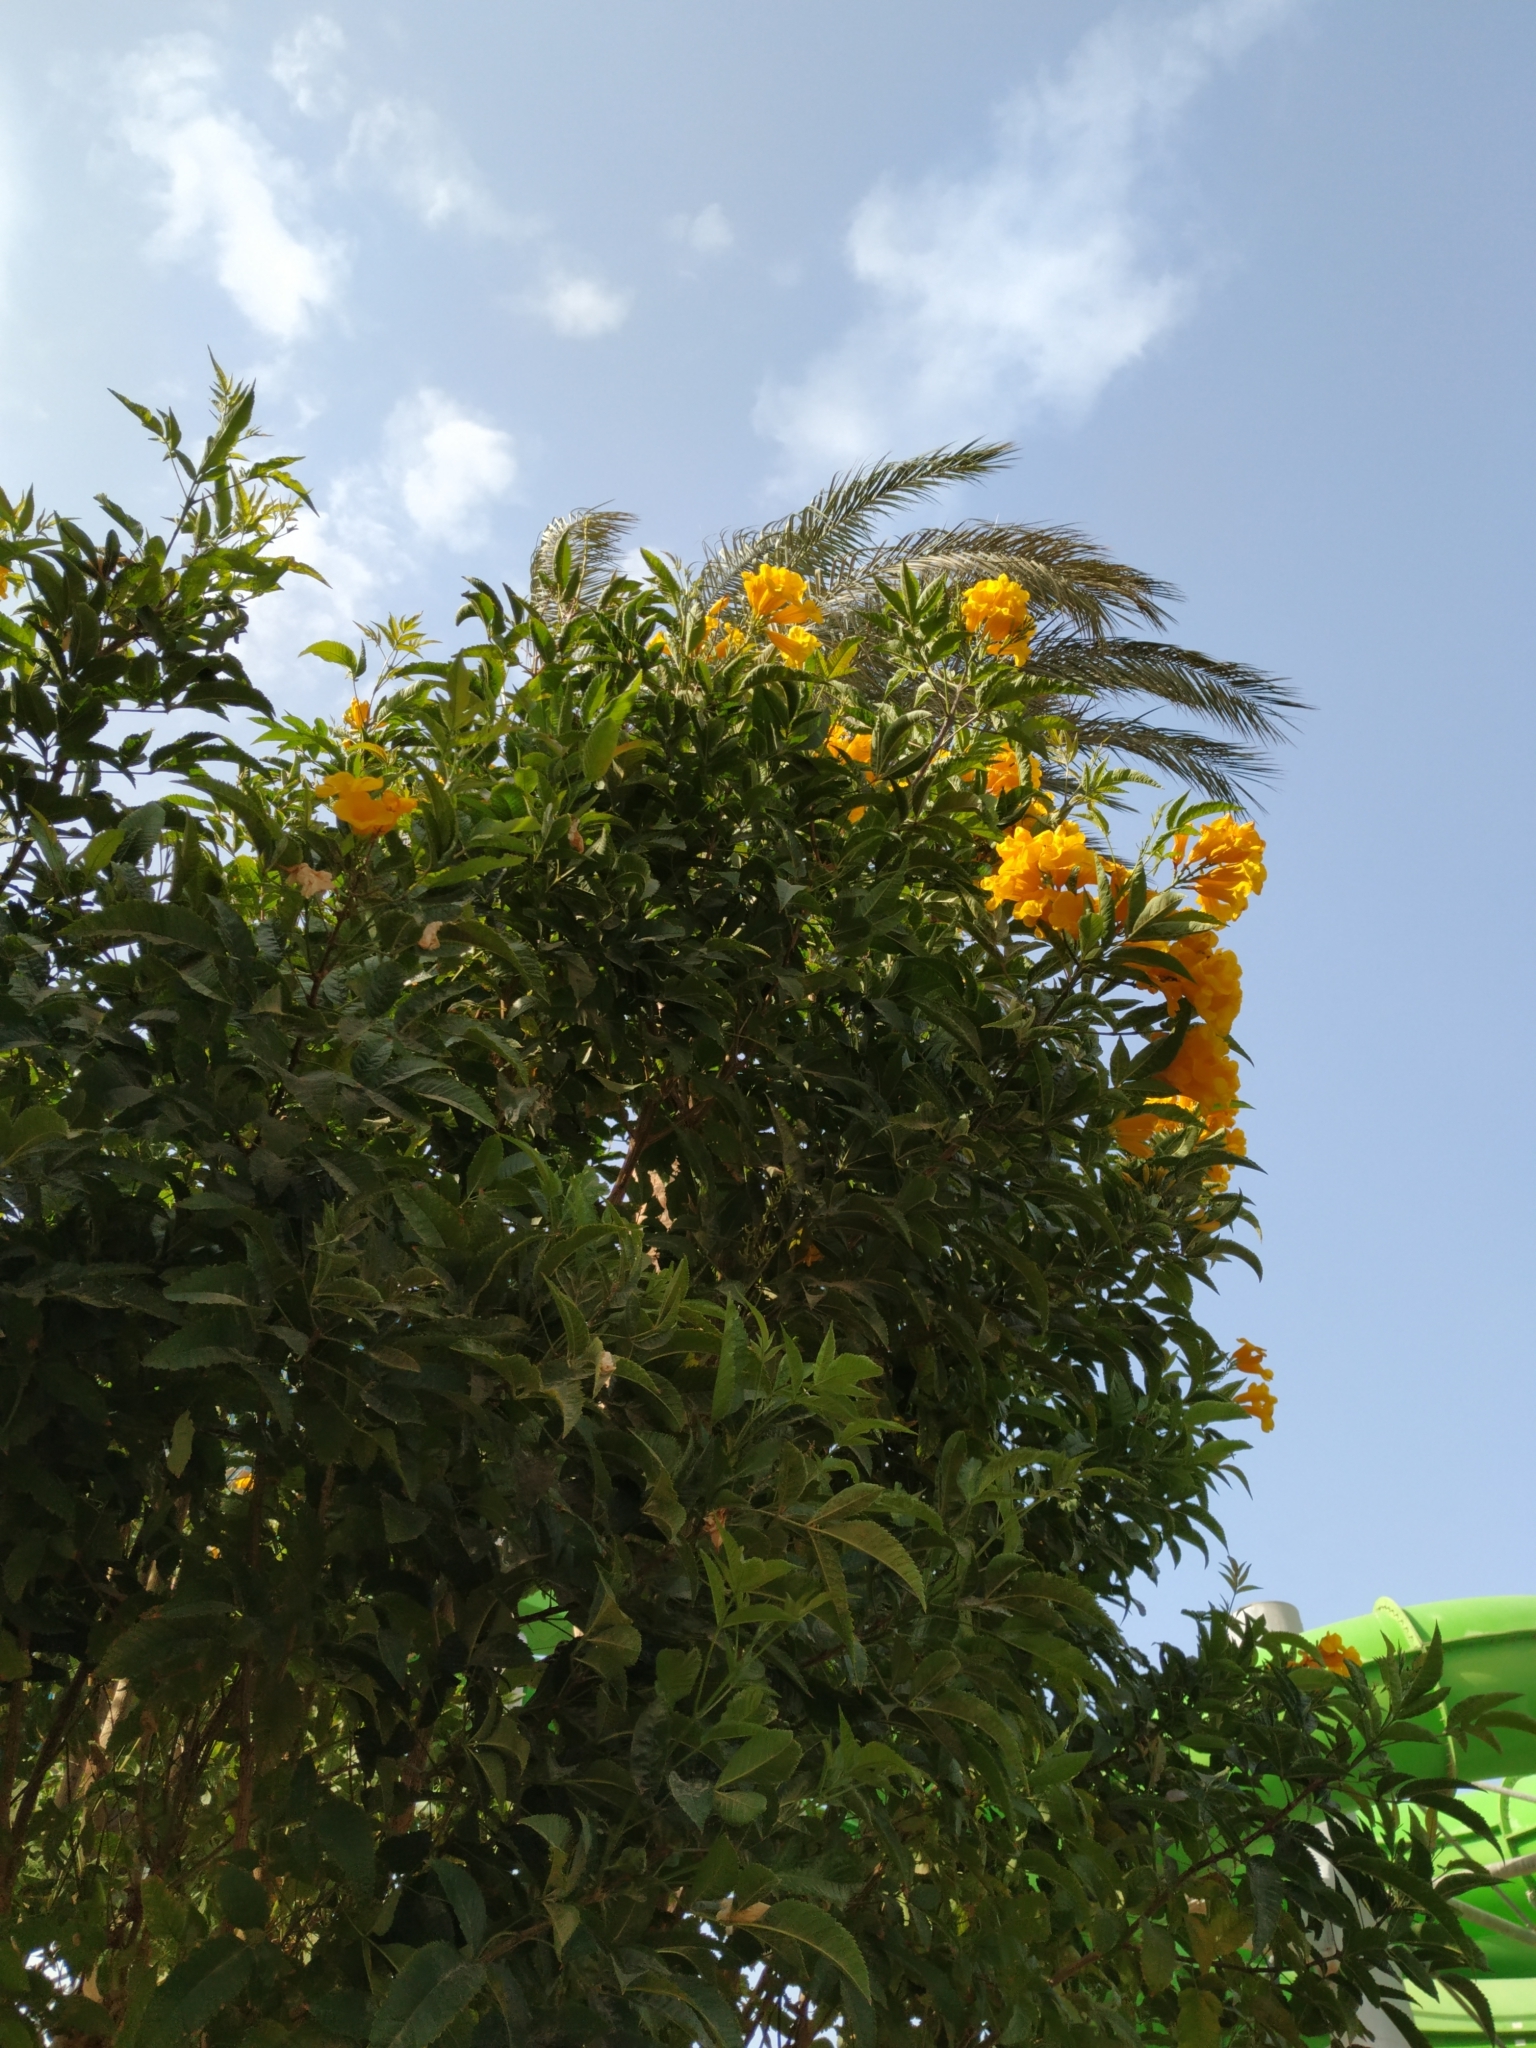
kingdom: Plantae
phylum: Tracheophyta
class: Magnoliopsida
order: Lamiales
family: Bignoniaceae
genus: Tecoma
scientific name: Tecoma stans
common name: Yellow trumpetbush
